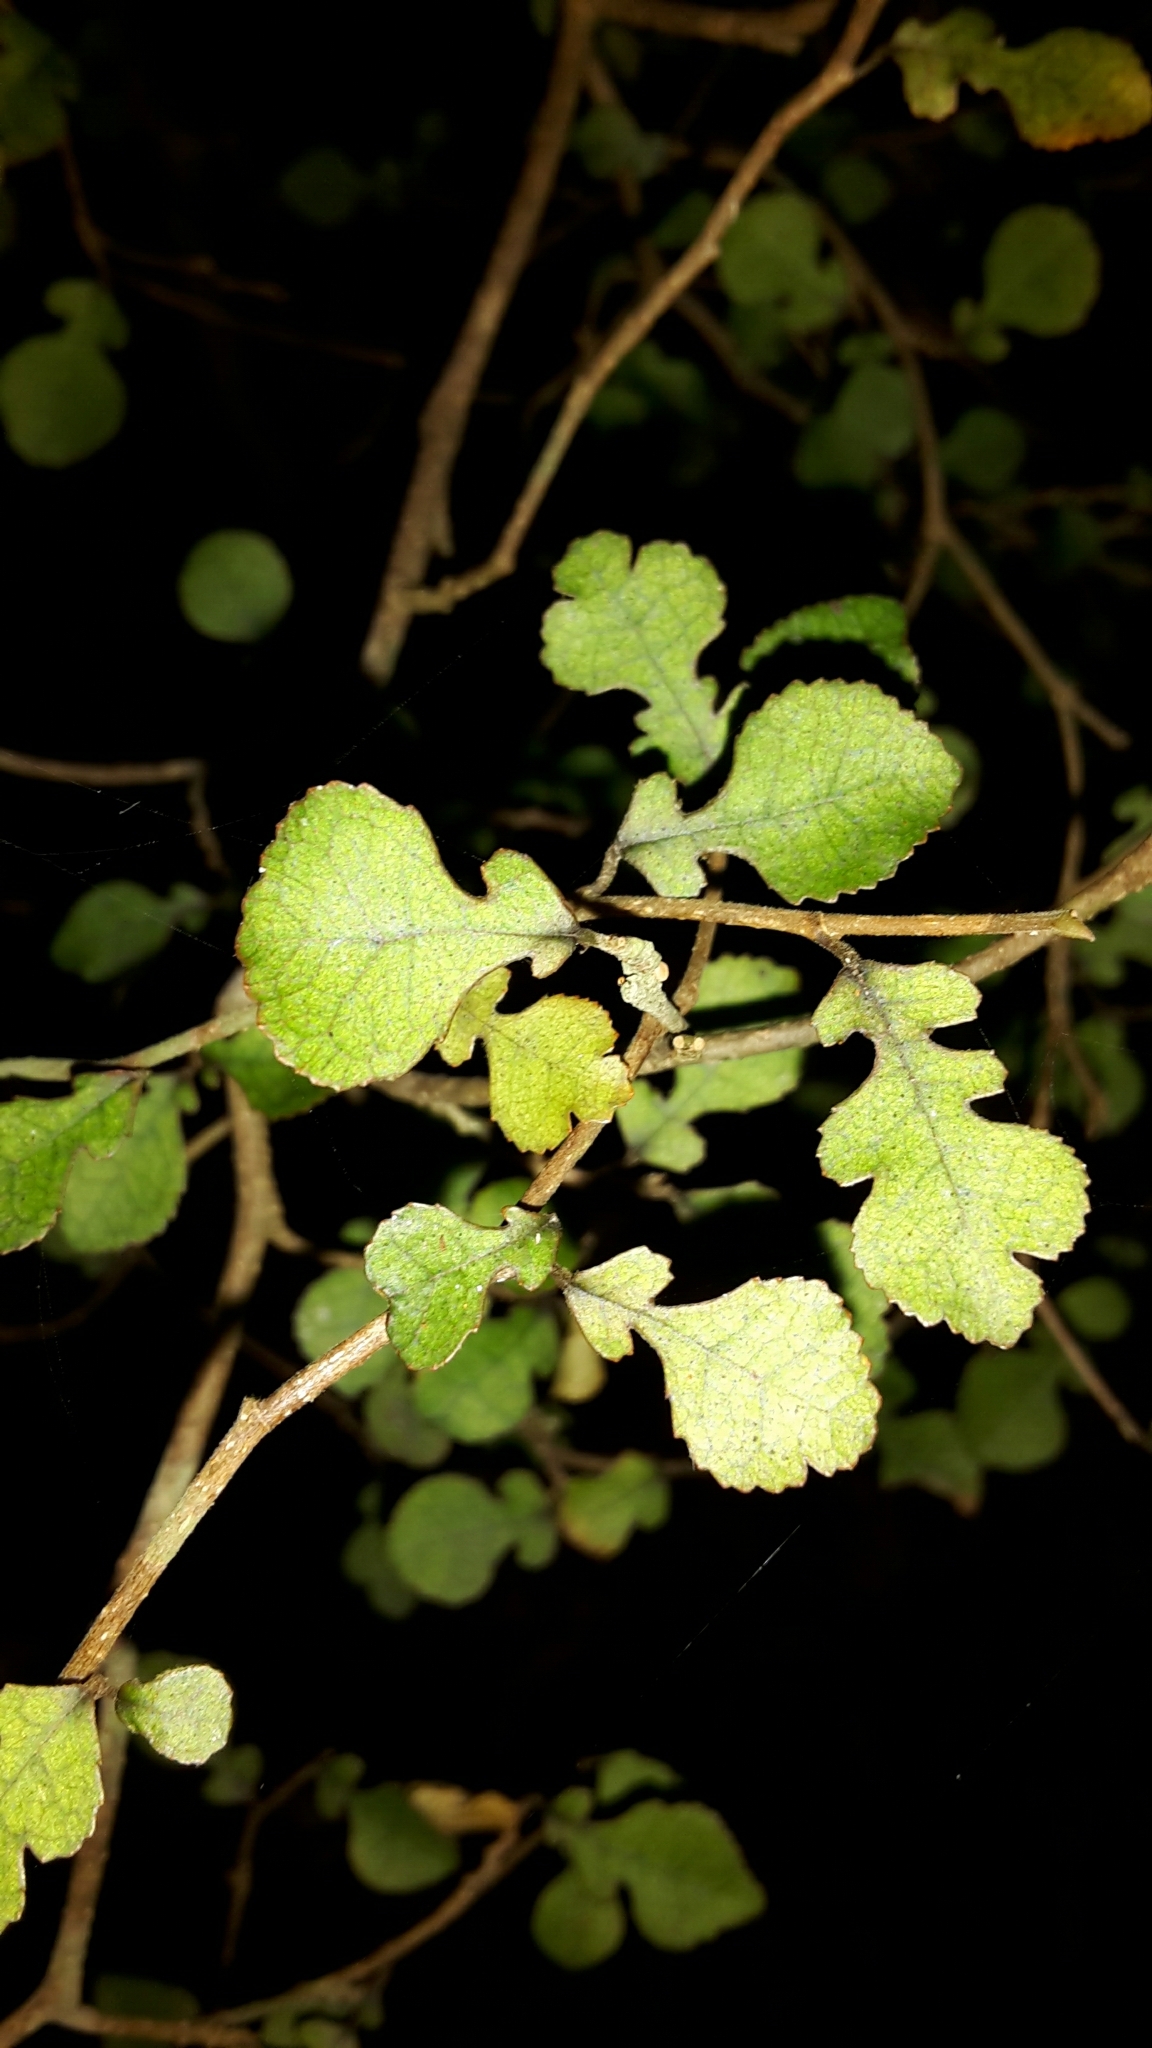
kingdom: Plantae
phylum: Tracheophyta
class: Magnoliopsida
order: Rosales
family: Moraceae
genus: Paratrophis
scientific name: Paratrophis microphylla
